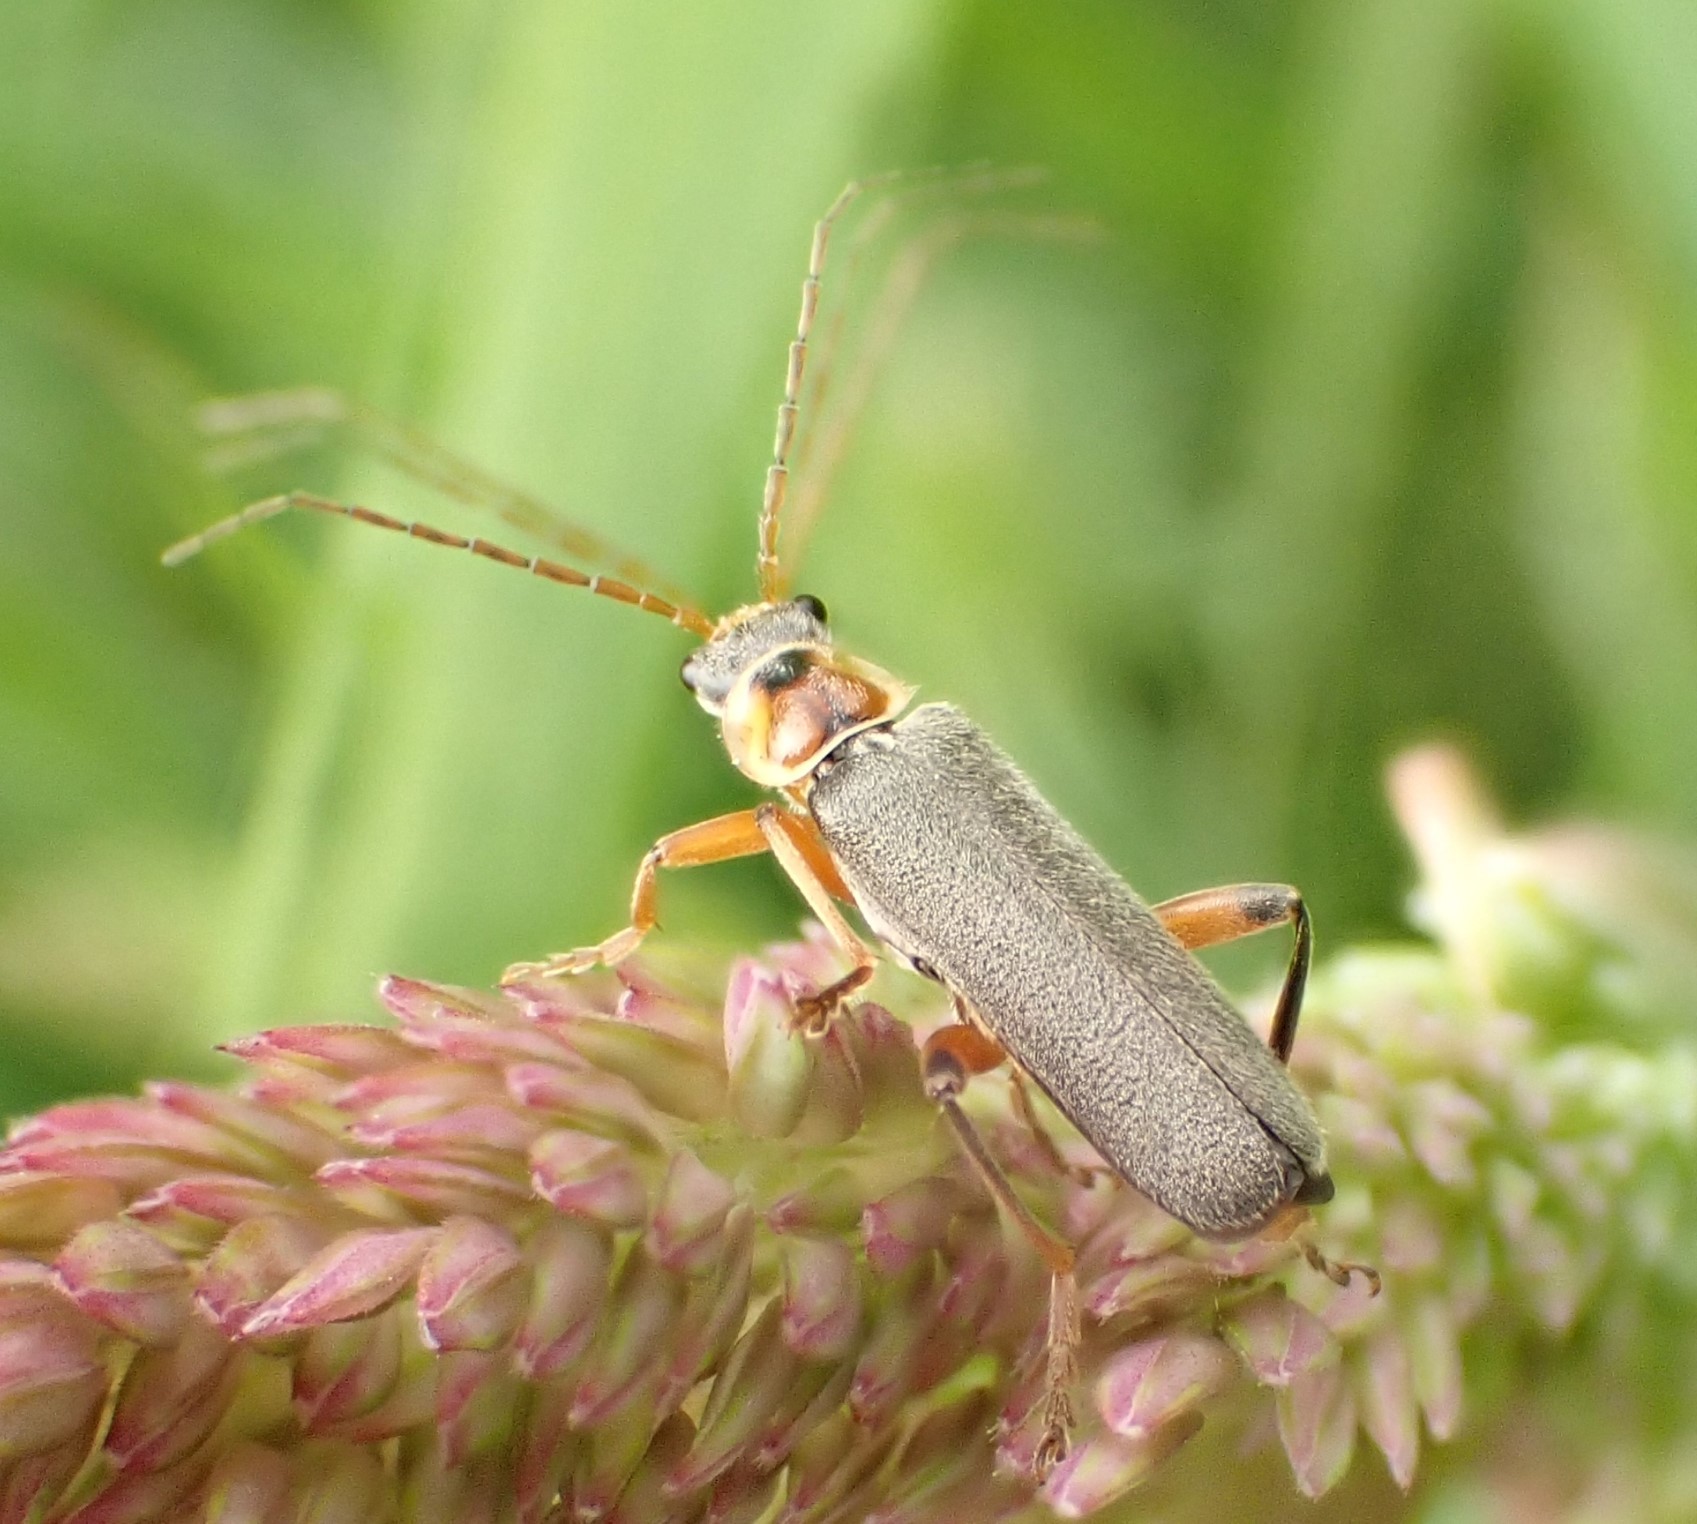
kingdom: Animalia
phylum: Arthropoda
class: Insecta
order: Coleoptera
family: Cantharidae
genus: Cantharis
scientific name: Cantharis nigricans
